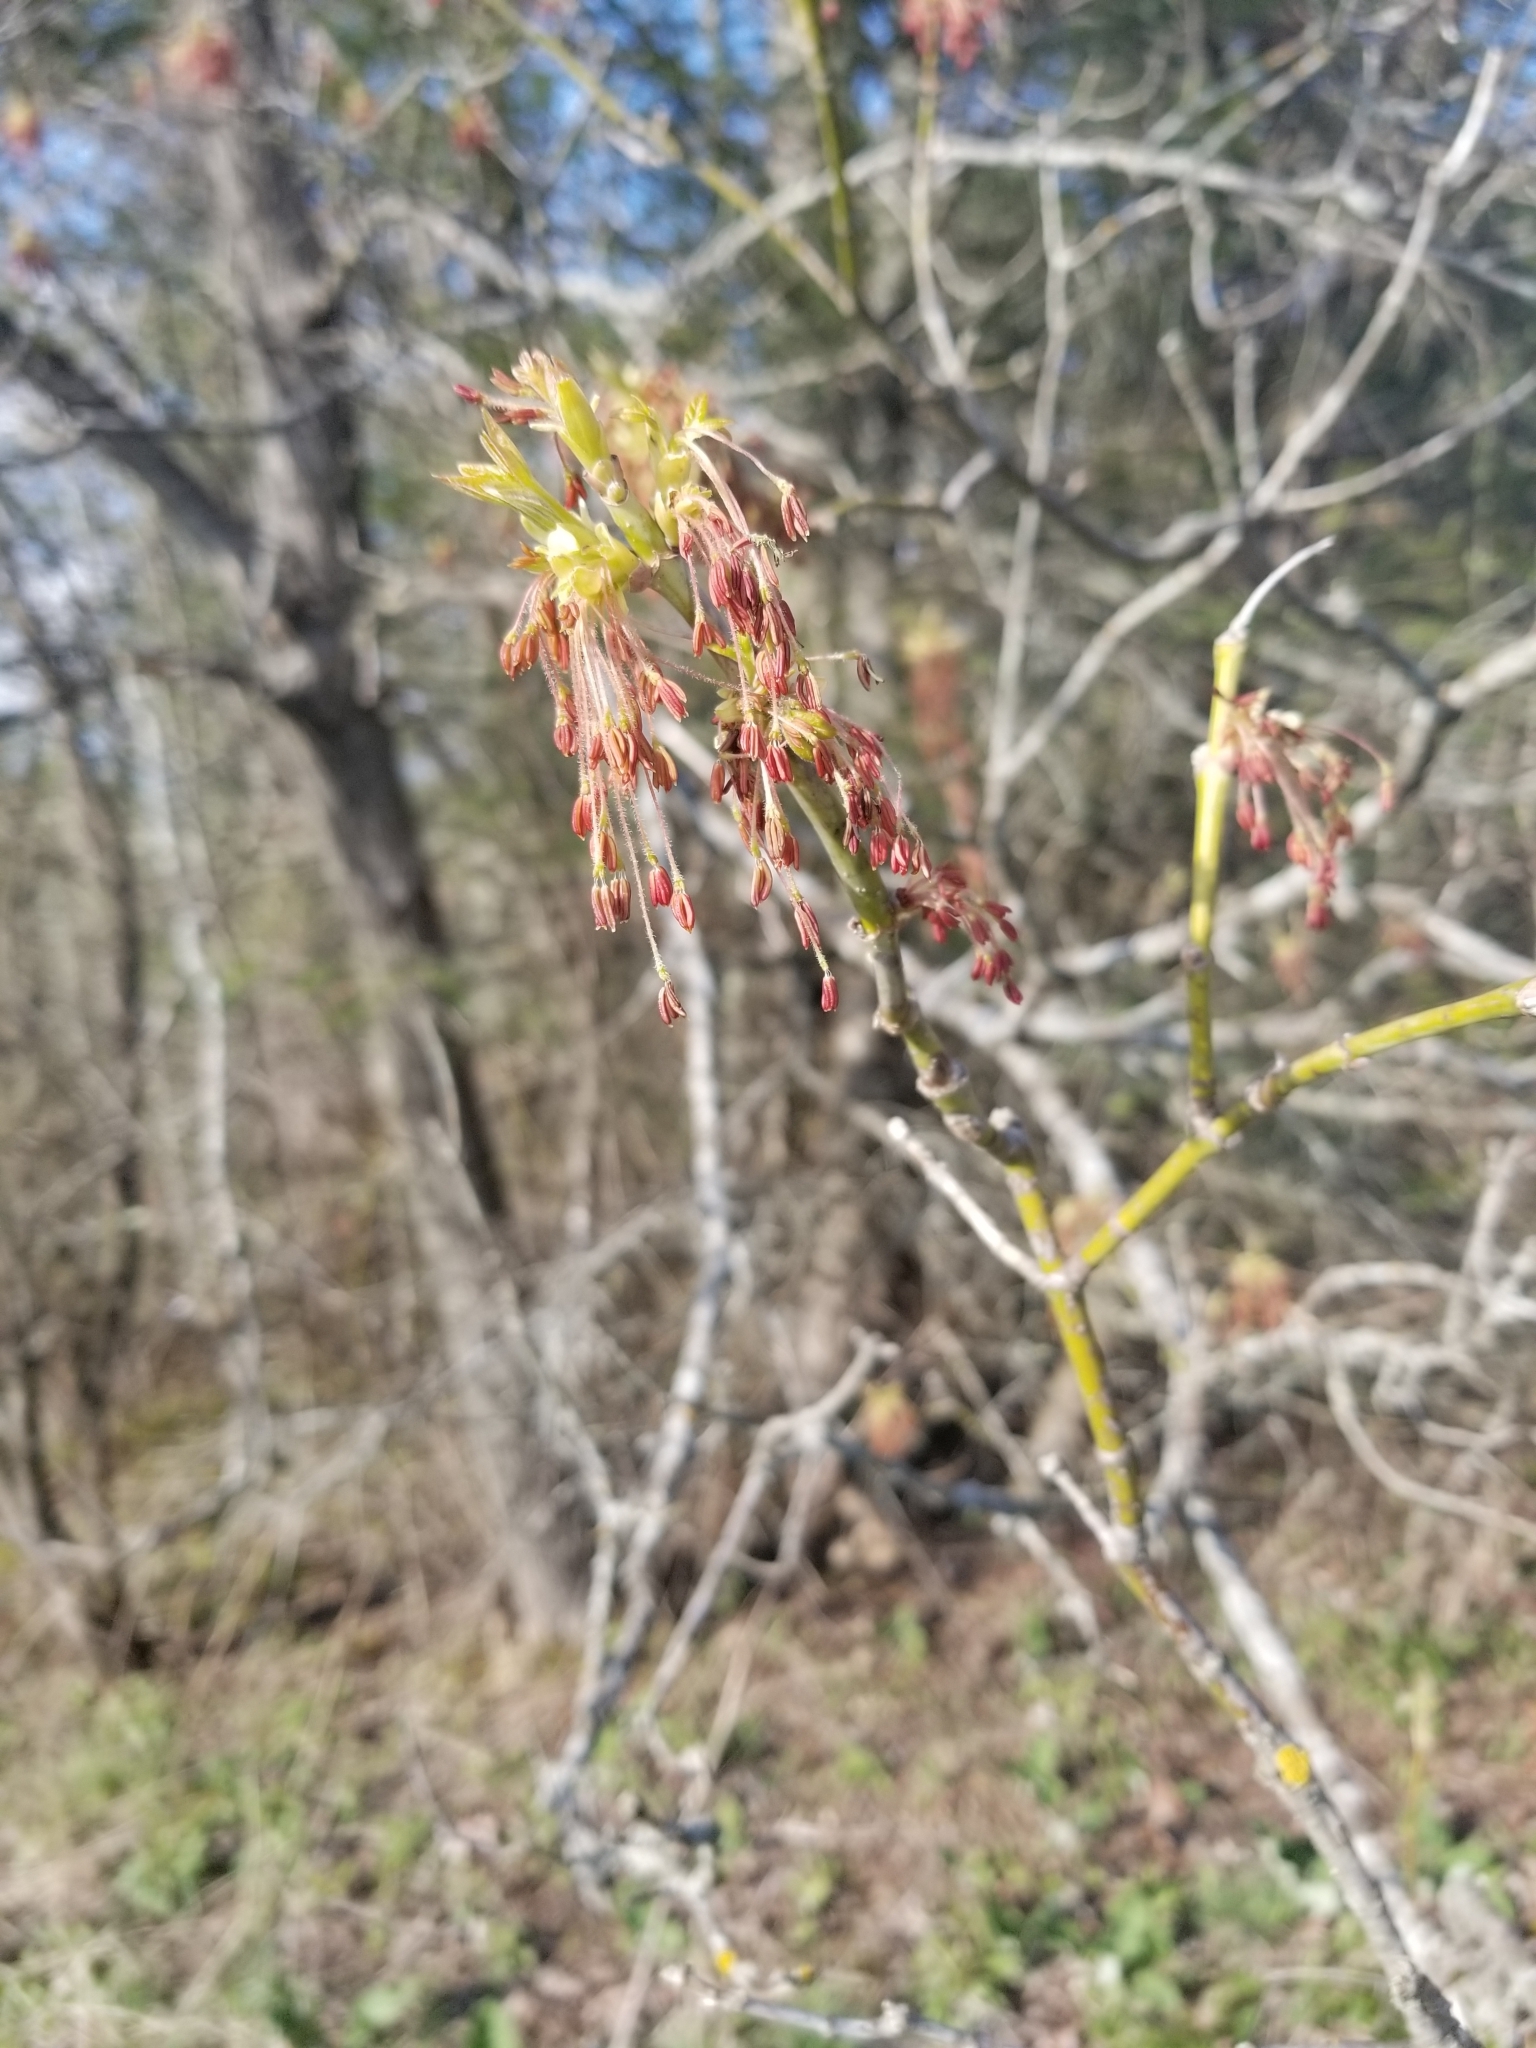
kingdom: Plantae
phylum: Tracheophyta
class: Magnoliopsida
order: Sapindales
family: Sapindaceae
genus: Acer
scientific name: Acer negundo
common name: Ashleaf maple
